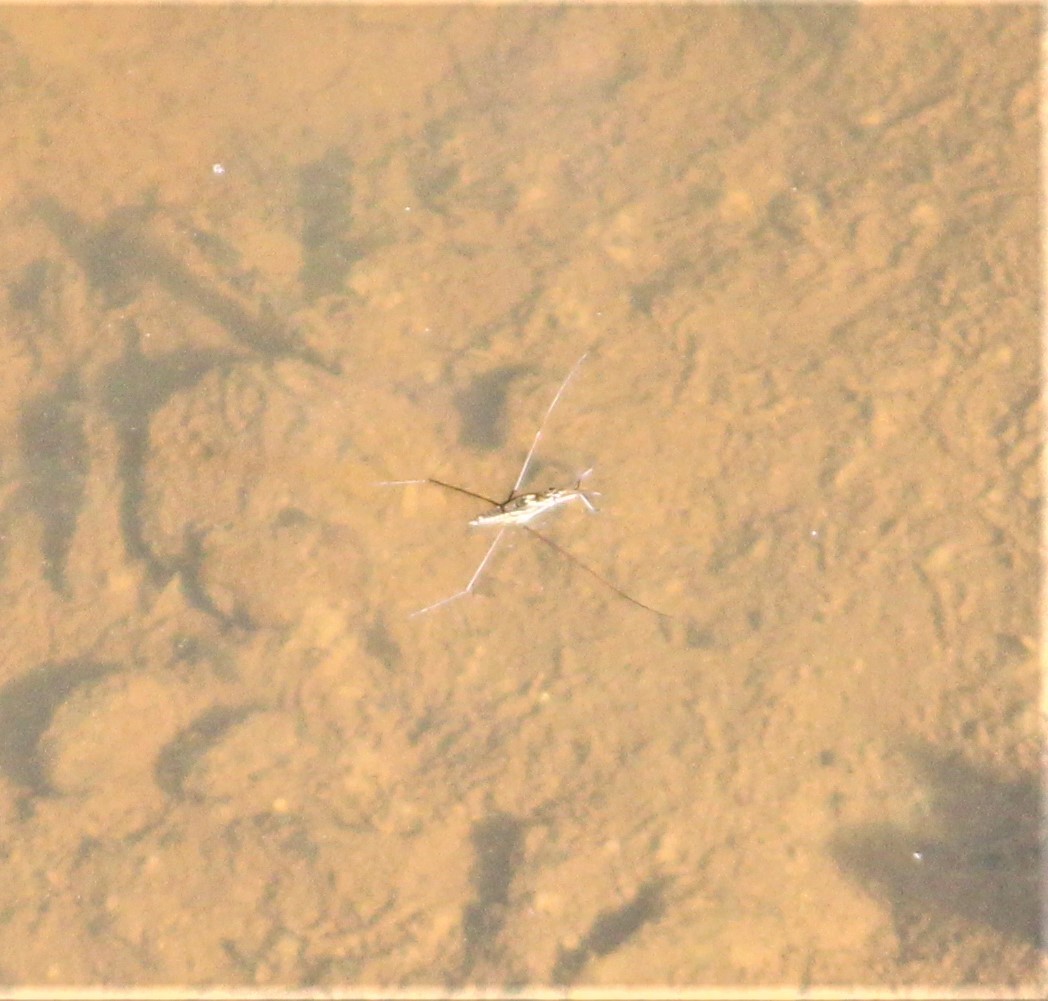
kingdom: Animalia
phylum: Arthropoda
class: Insecta
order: Hemiptera
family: Gerridae
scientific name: Gerridae
